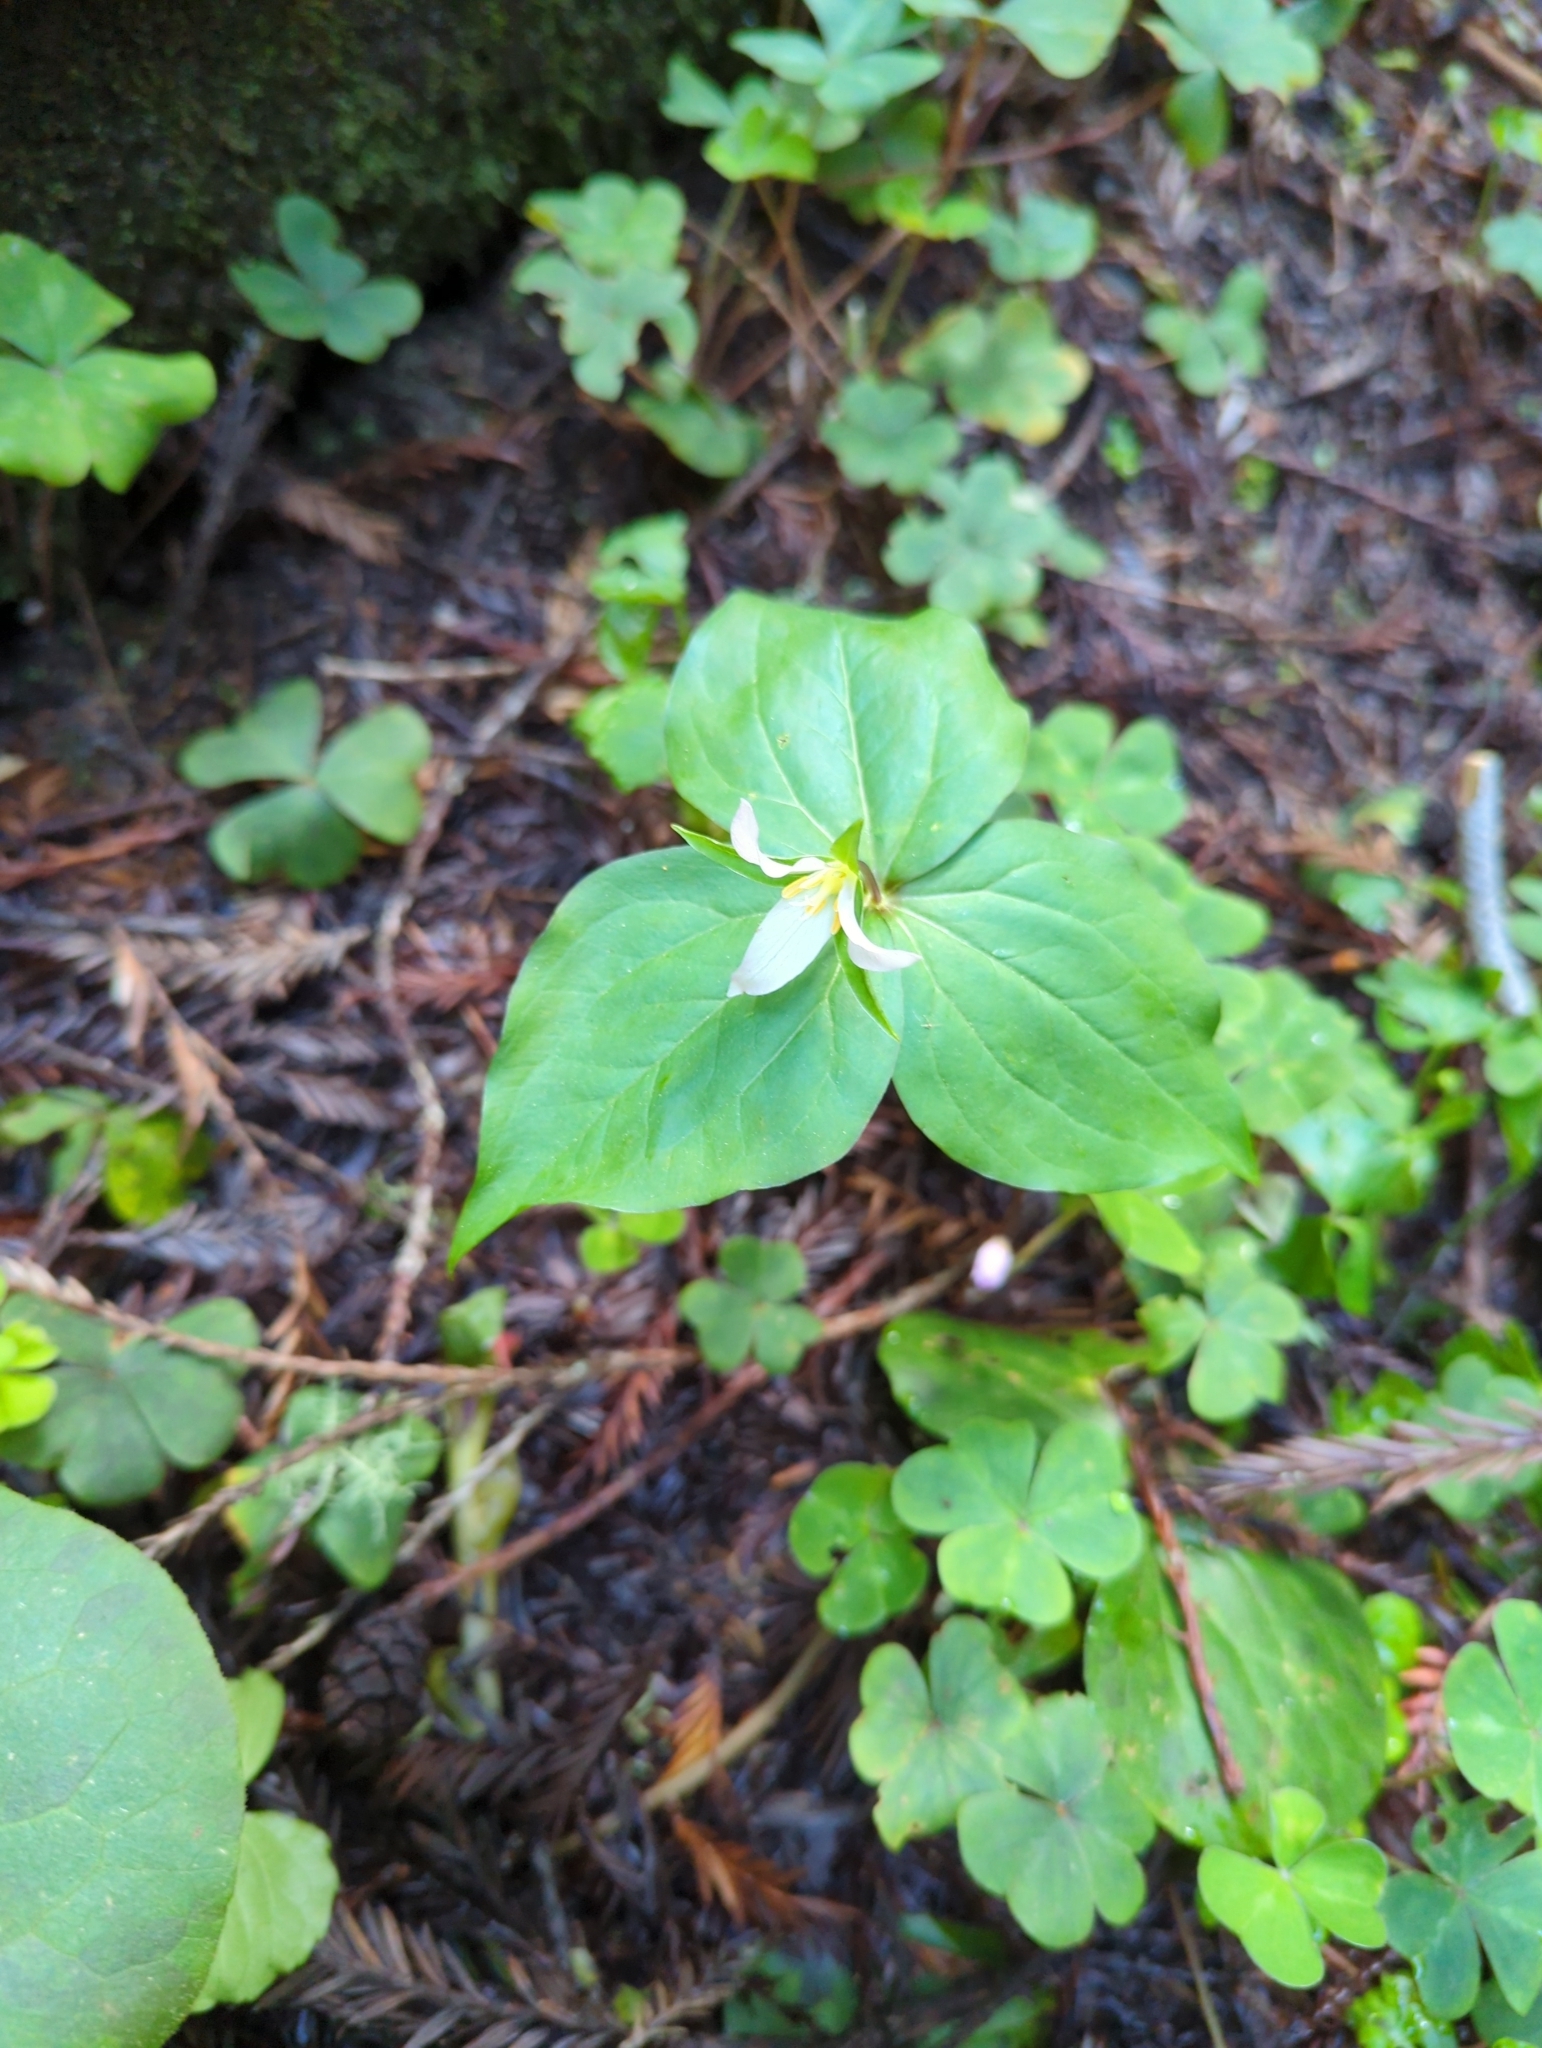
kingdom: Plantae
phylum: Tracheophyta
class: Liliopsida
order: Liliales
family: Melanthiaceae
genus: Trillium
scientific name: Trillium ovatum
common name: Pacific trillium
